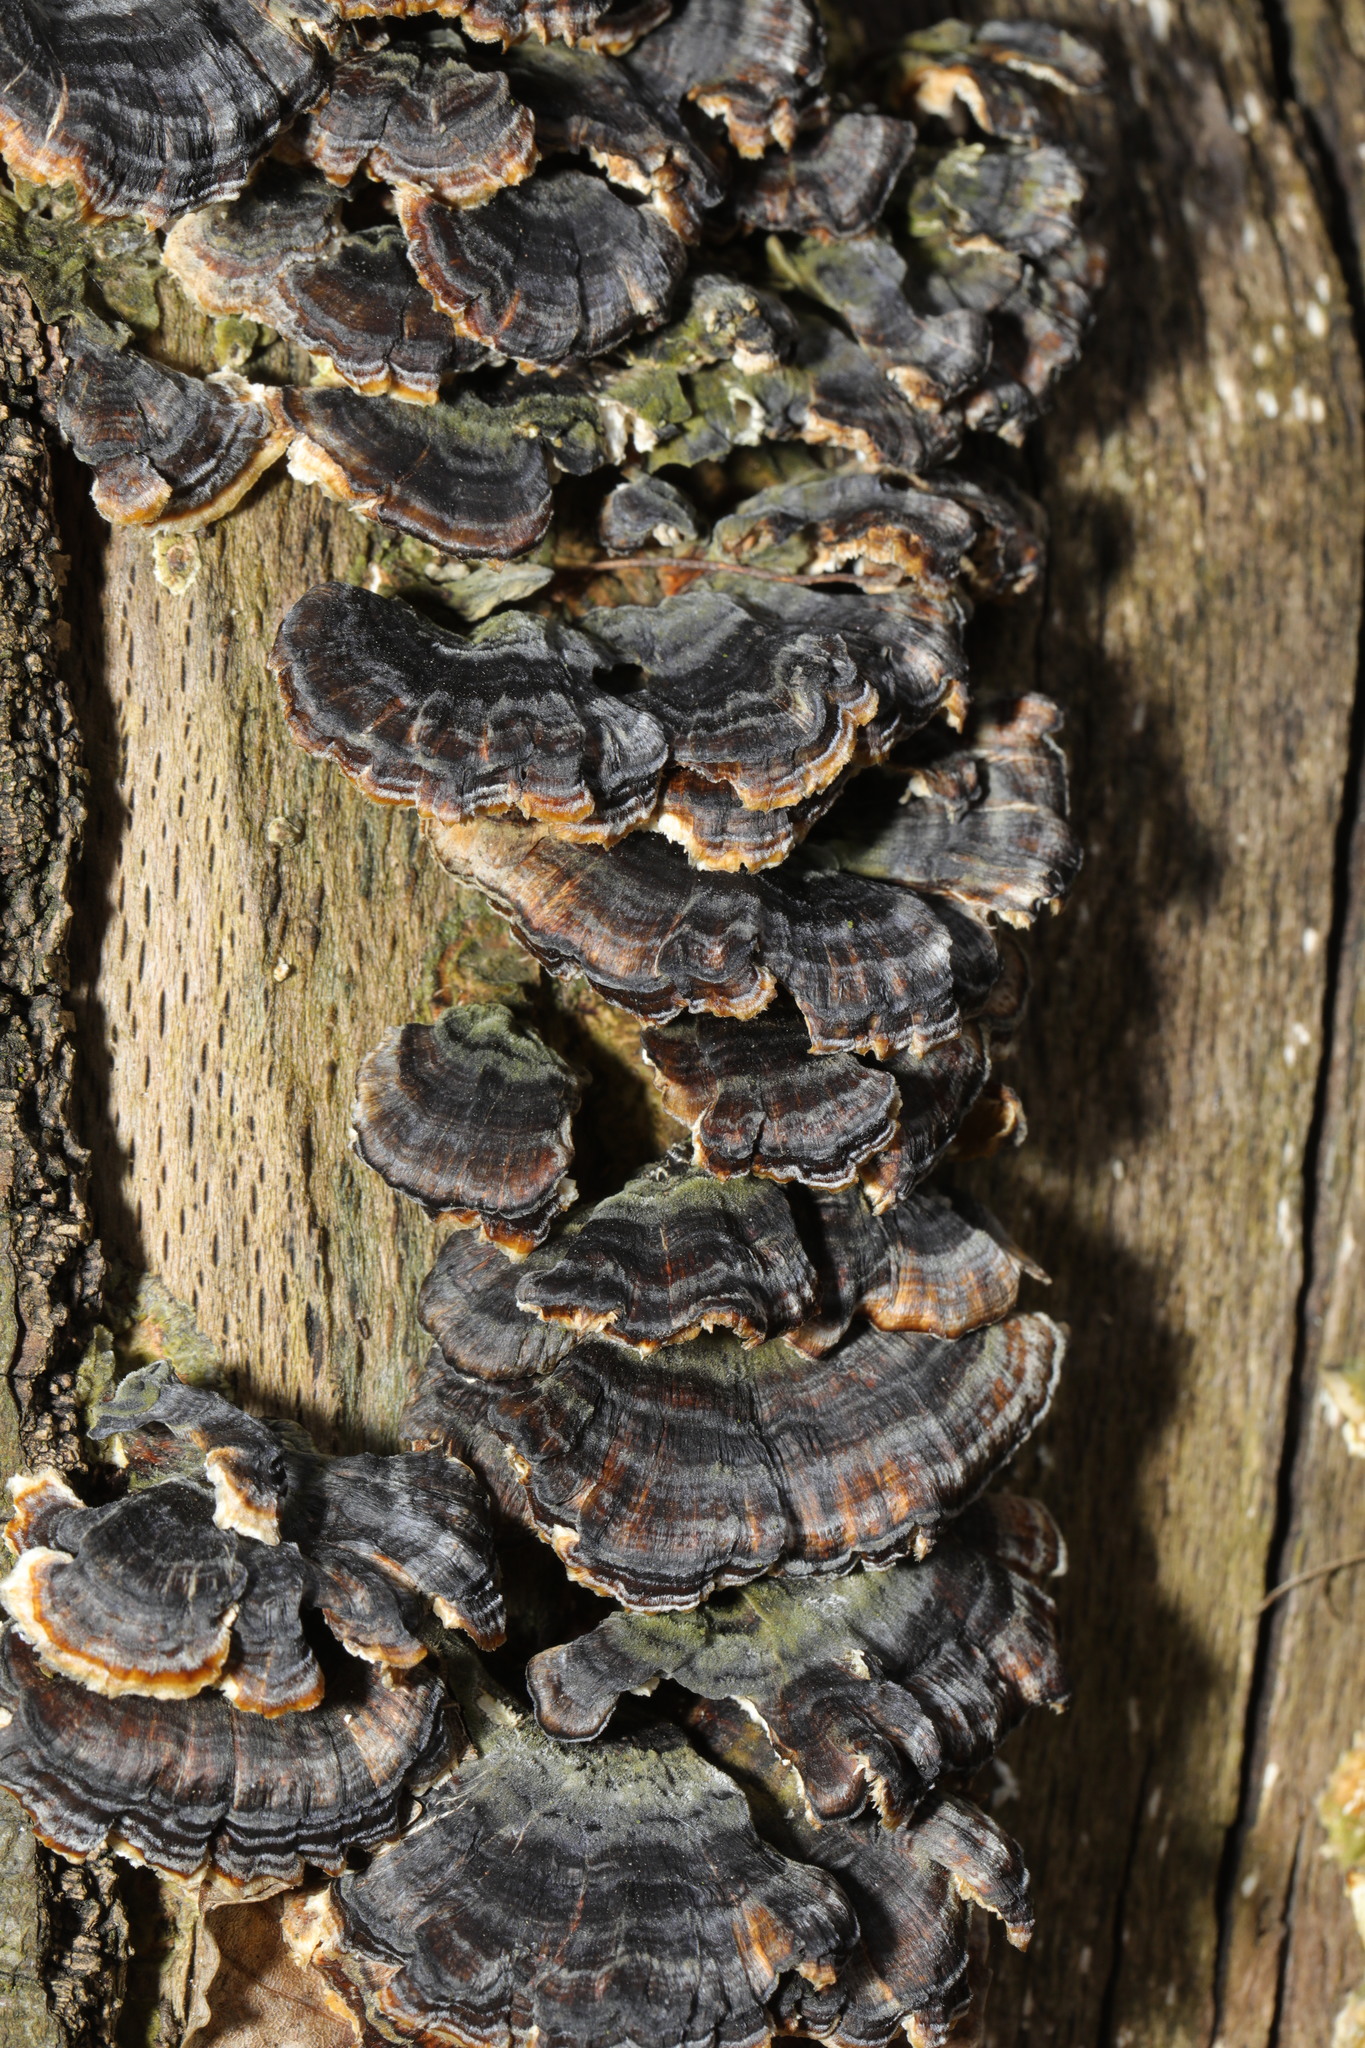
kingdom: Fungi
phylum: Basidiomycota
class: Agaricomycetes
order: Polyporales
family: Polyporaceae
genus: Trametes
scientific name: Trametes versicolor
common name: Turkeytail
